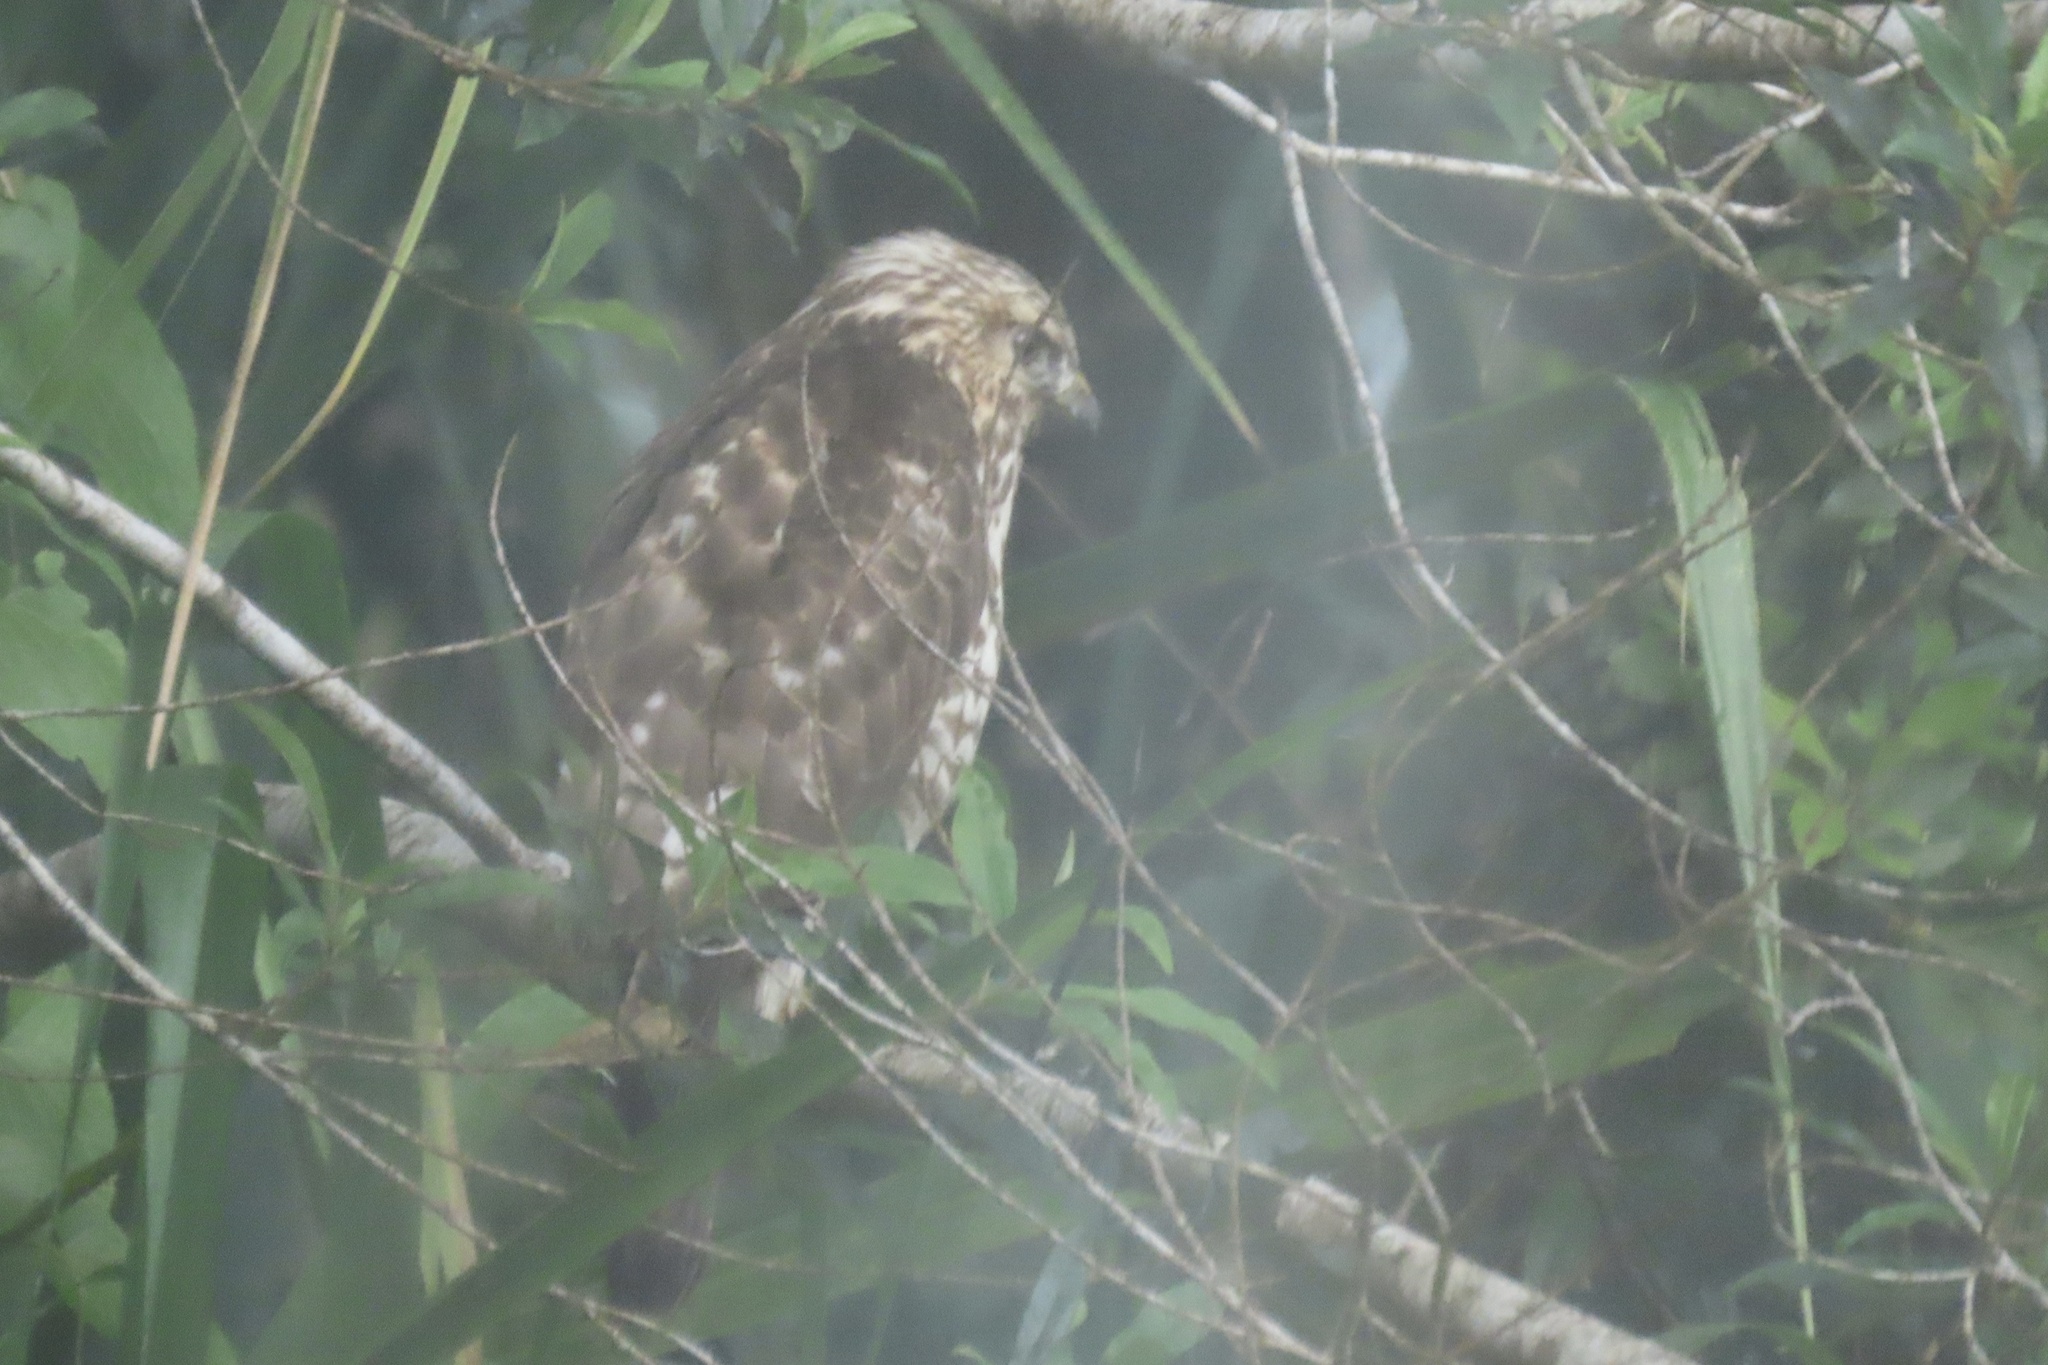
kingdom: Animalia
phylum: Chordata
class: Aves
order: Accipitriformes
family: Accipitridae
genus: Buteo
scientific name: Buteo platypterus
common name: Broad-winged hawk
